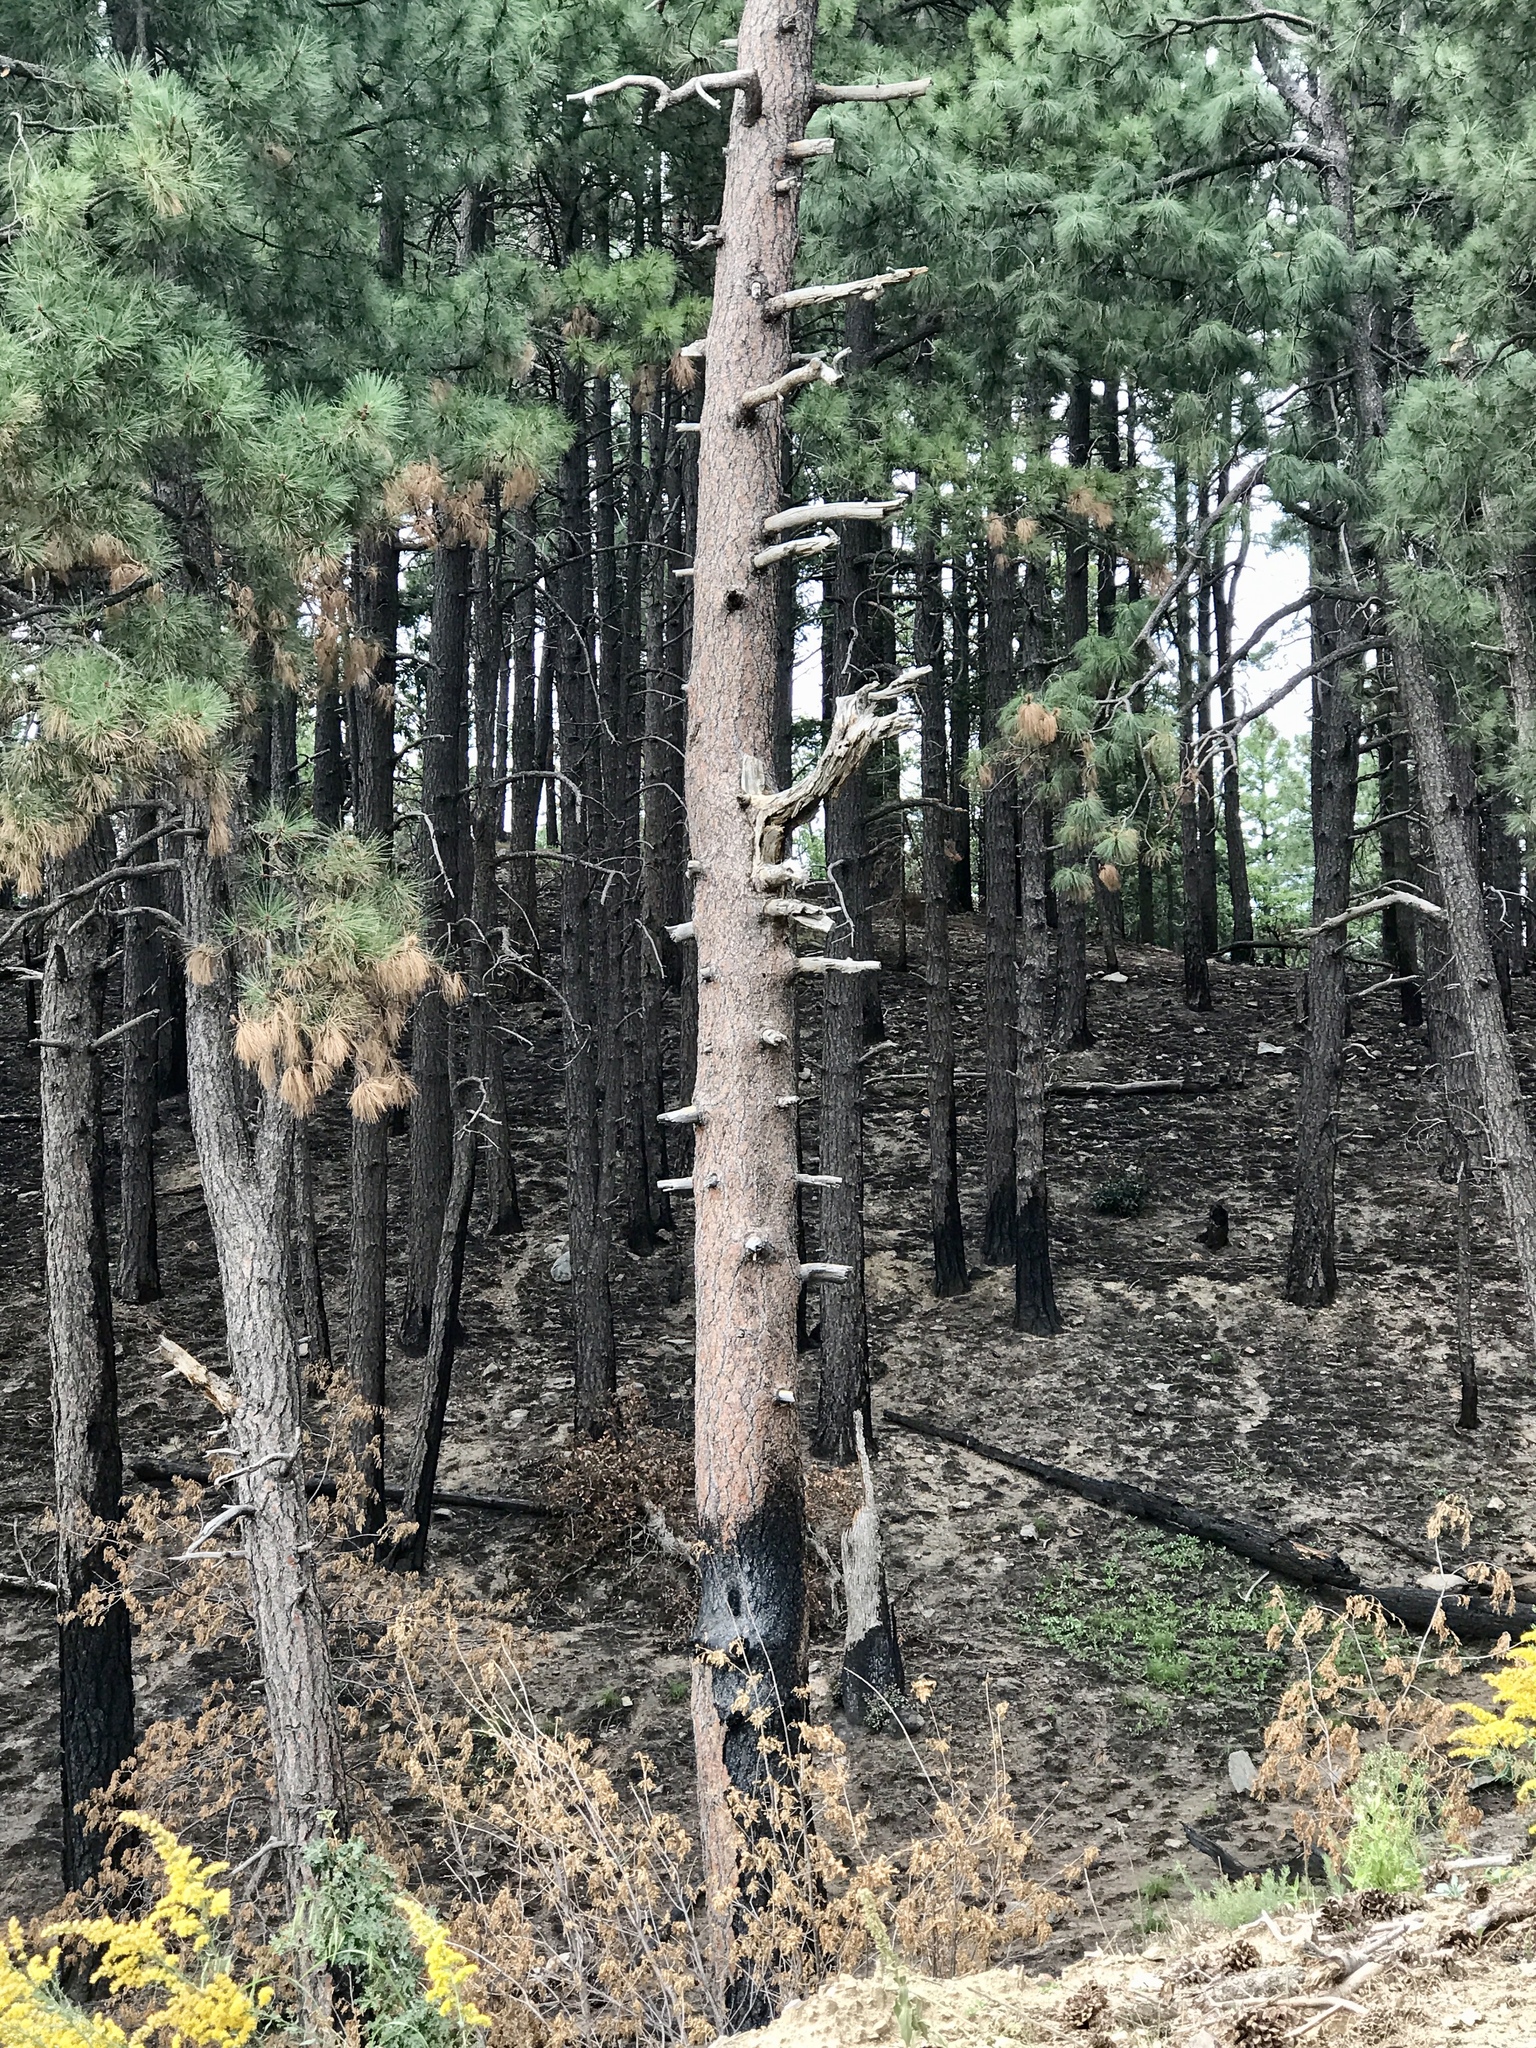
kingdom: Plantae
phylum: Tracheophyta
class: Pinopsida
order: Pinales
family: Pinaceae
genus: Pinus
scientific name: Pinus ponderosa
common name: Western yellow-pine
